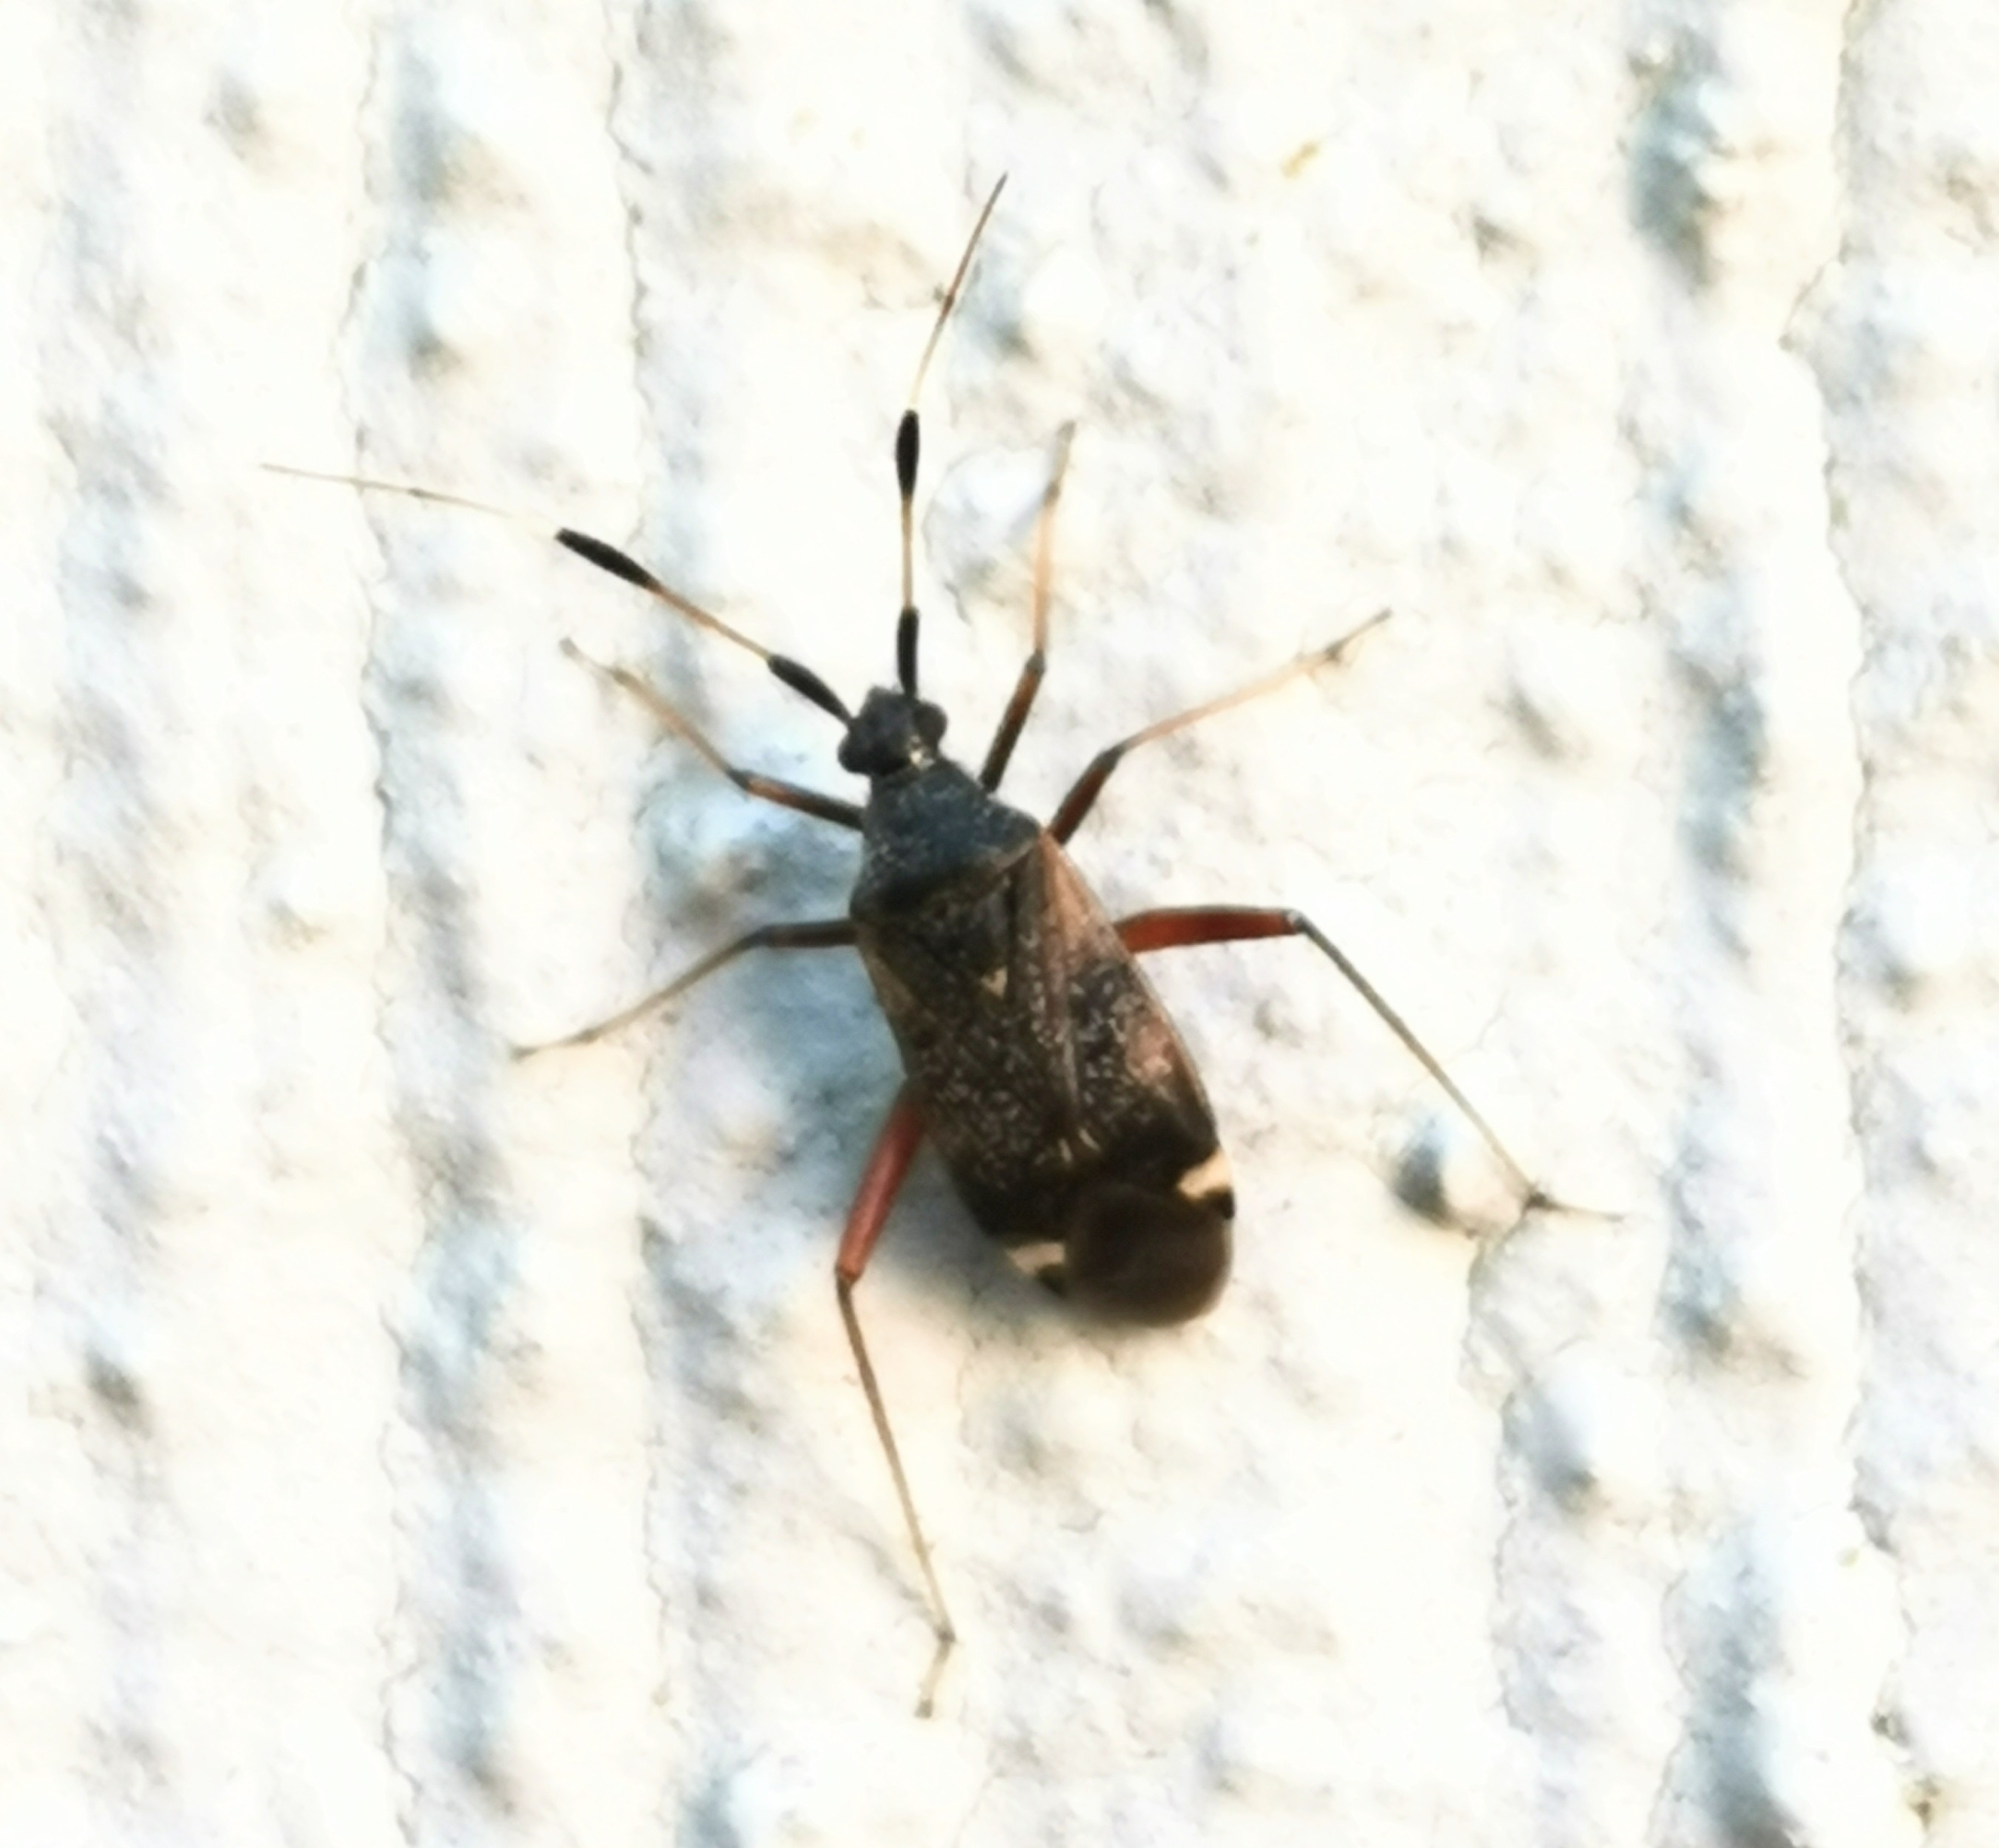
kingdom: Animalia
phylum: Arthropoda
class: Insecta
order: Hemiptera
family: Miridae
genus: Closterotomus
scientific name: Closterotomus biclavatus
